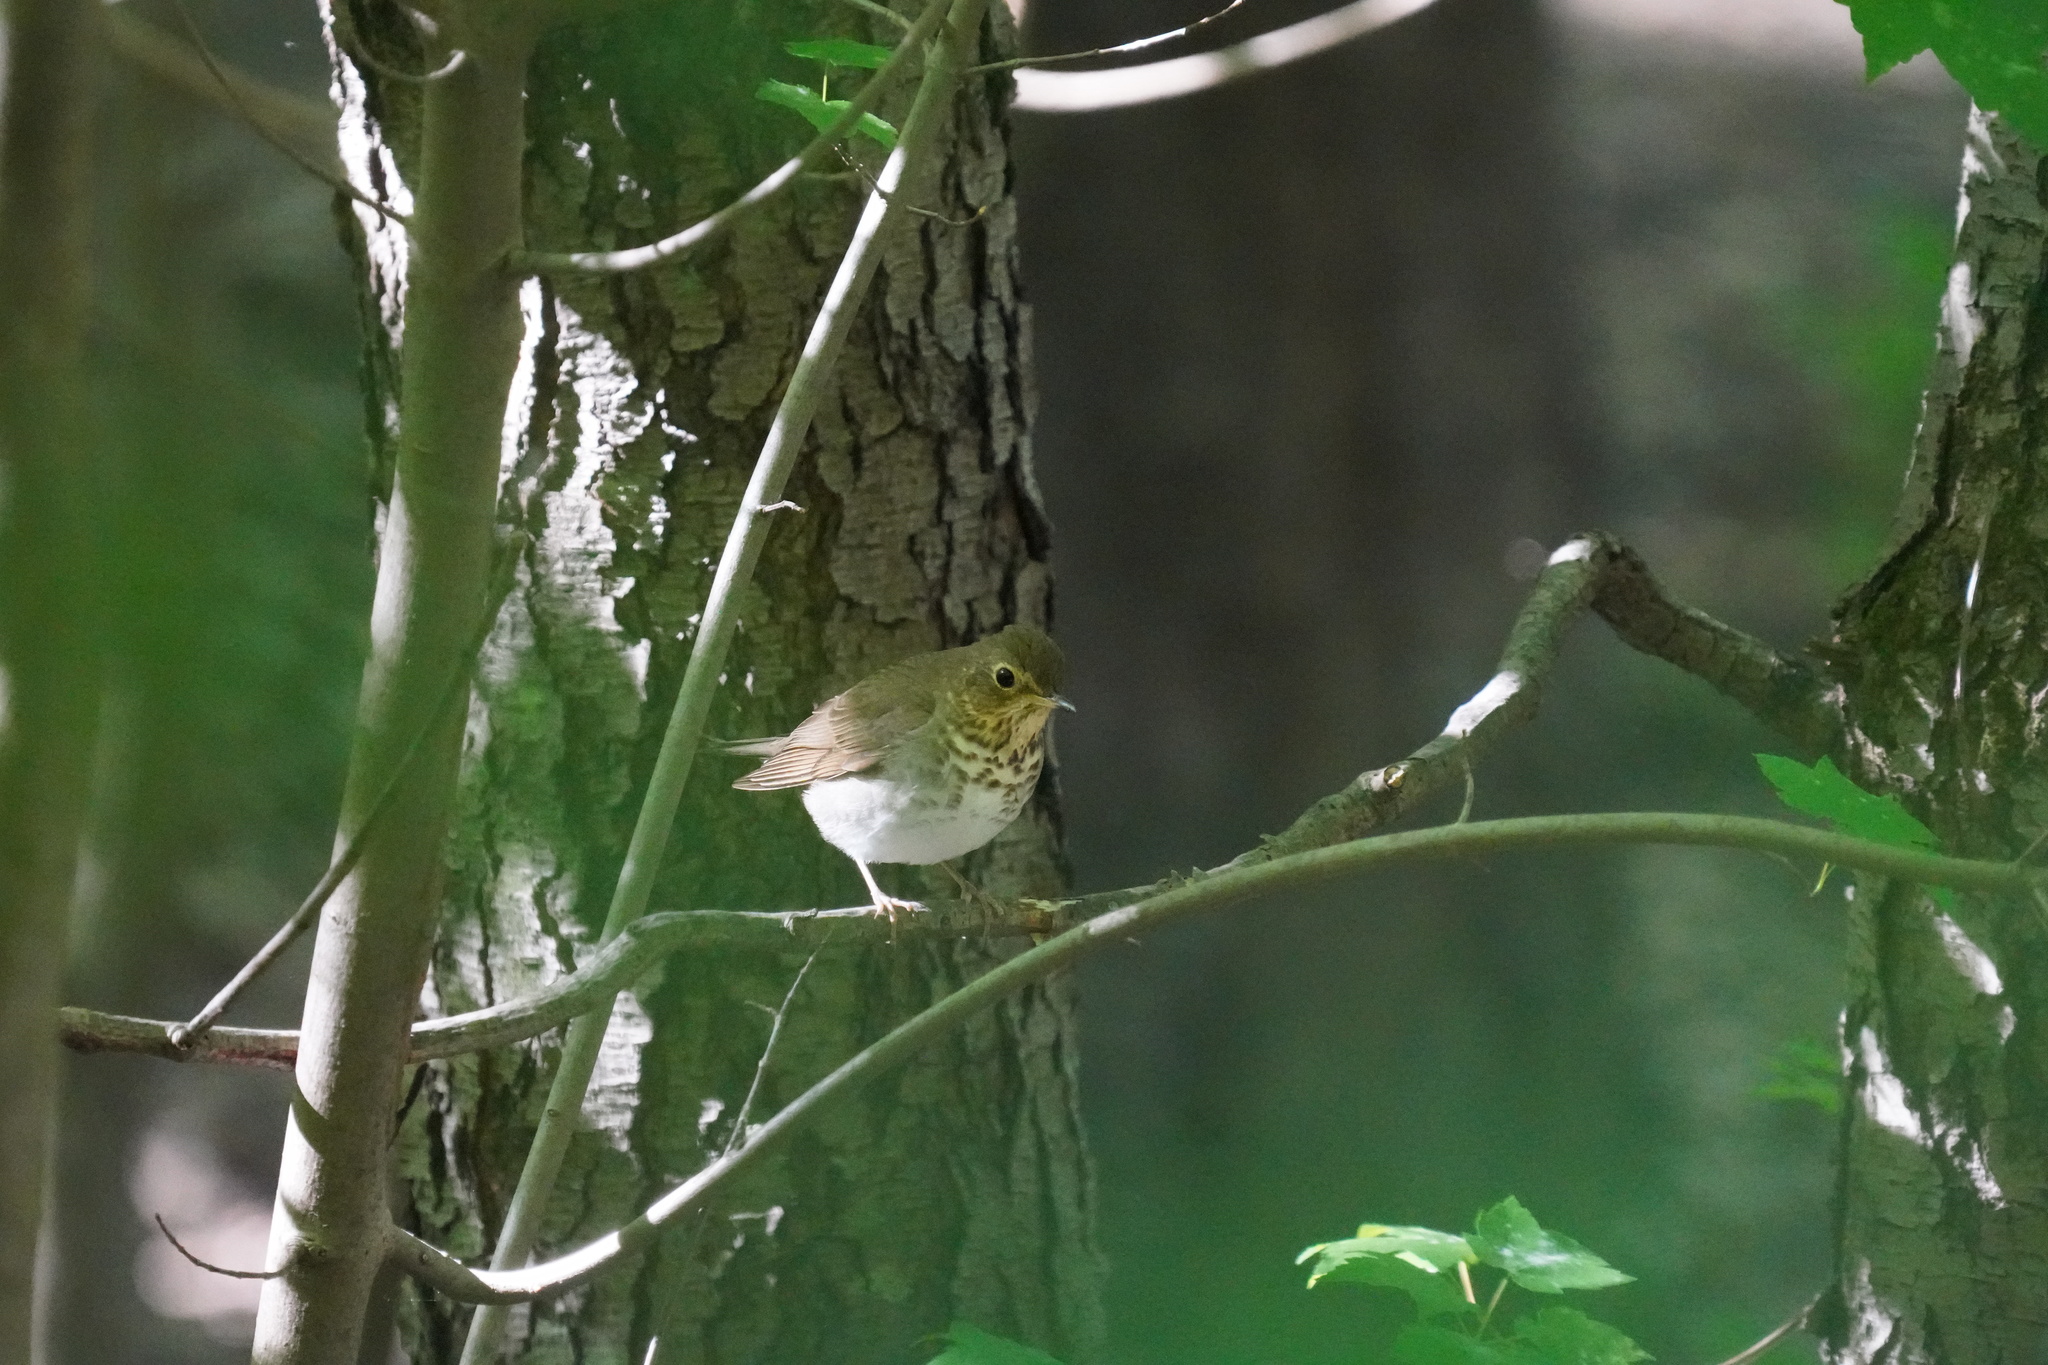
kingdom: Animalia
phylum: Chordata
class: Aves
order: Passeriformes
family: Turdidae
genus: Catharus
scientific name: Catharus ustulatus
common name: Swainson's thrush
